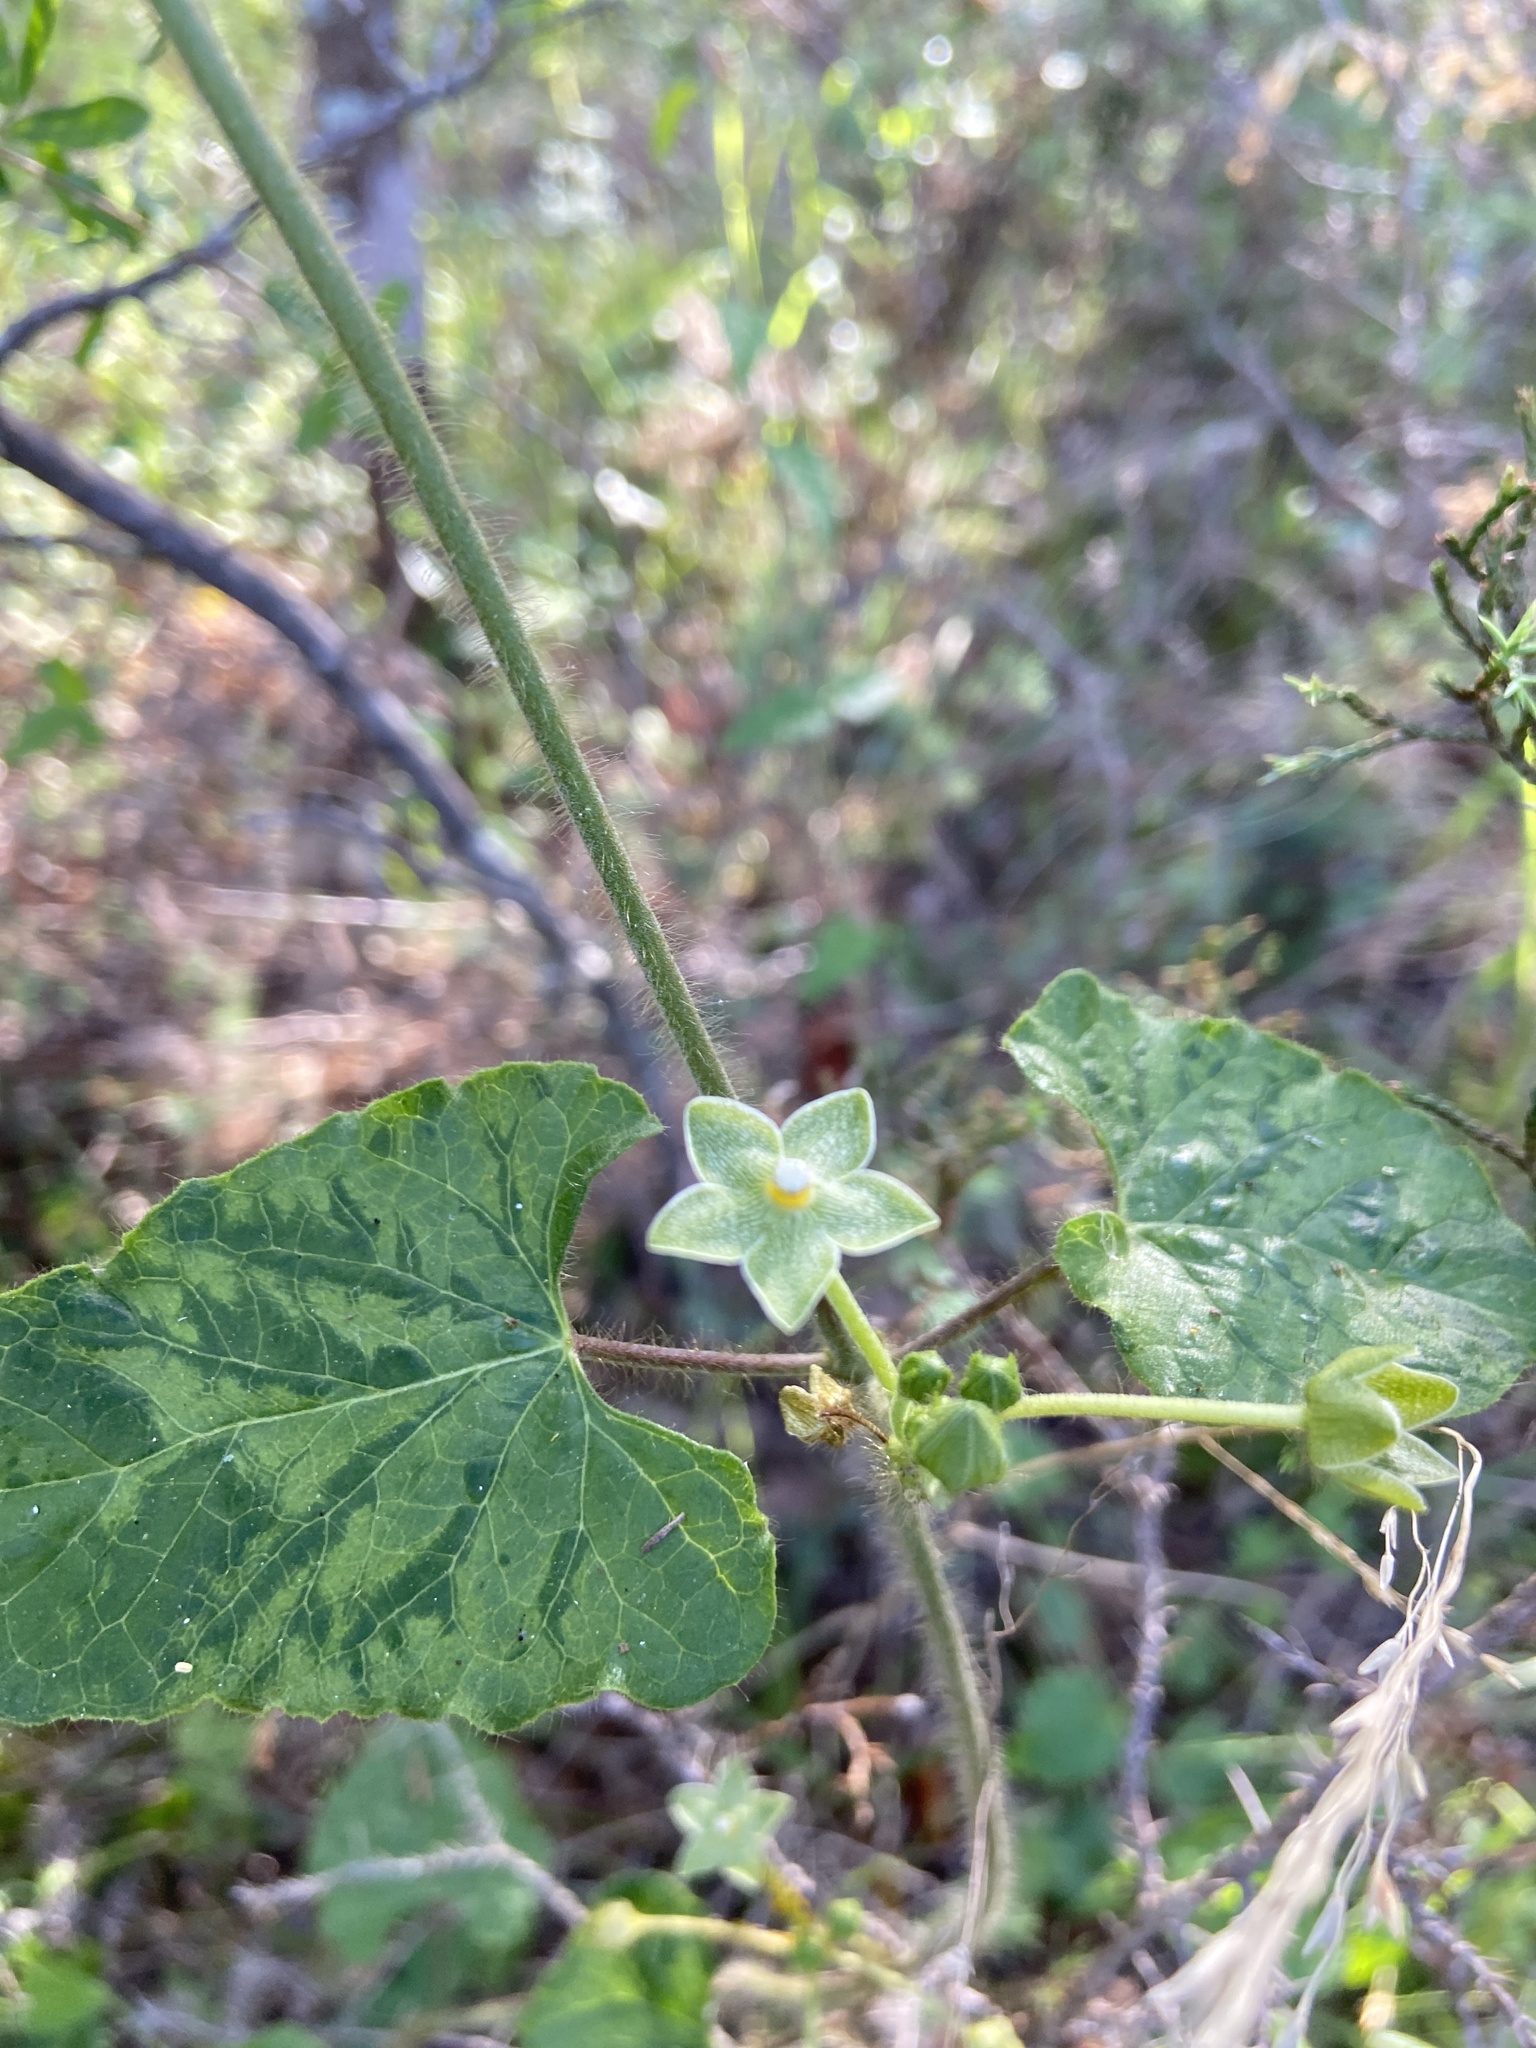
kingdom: Plantae
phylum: Tracheophyta
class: Magnoliopsida
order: Gentianales
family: Apocynaceae
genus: Dictyanthus
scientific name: Dictyanthus reticulatus
